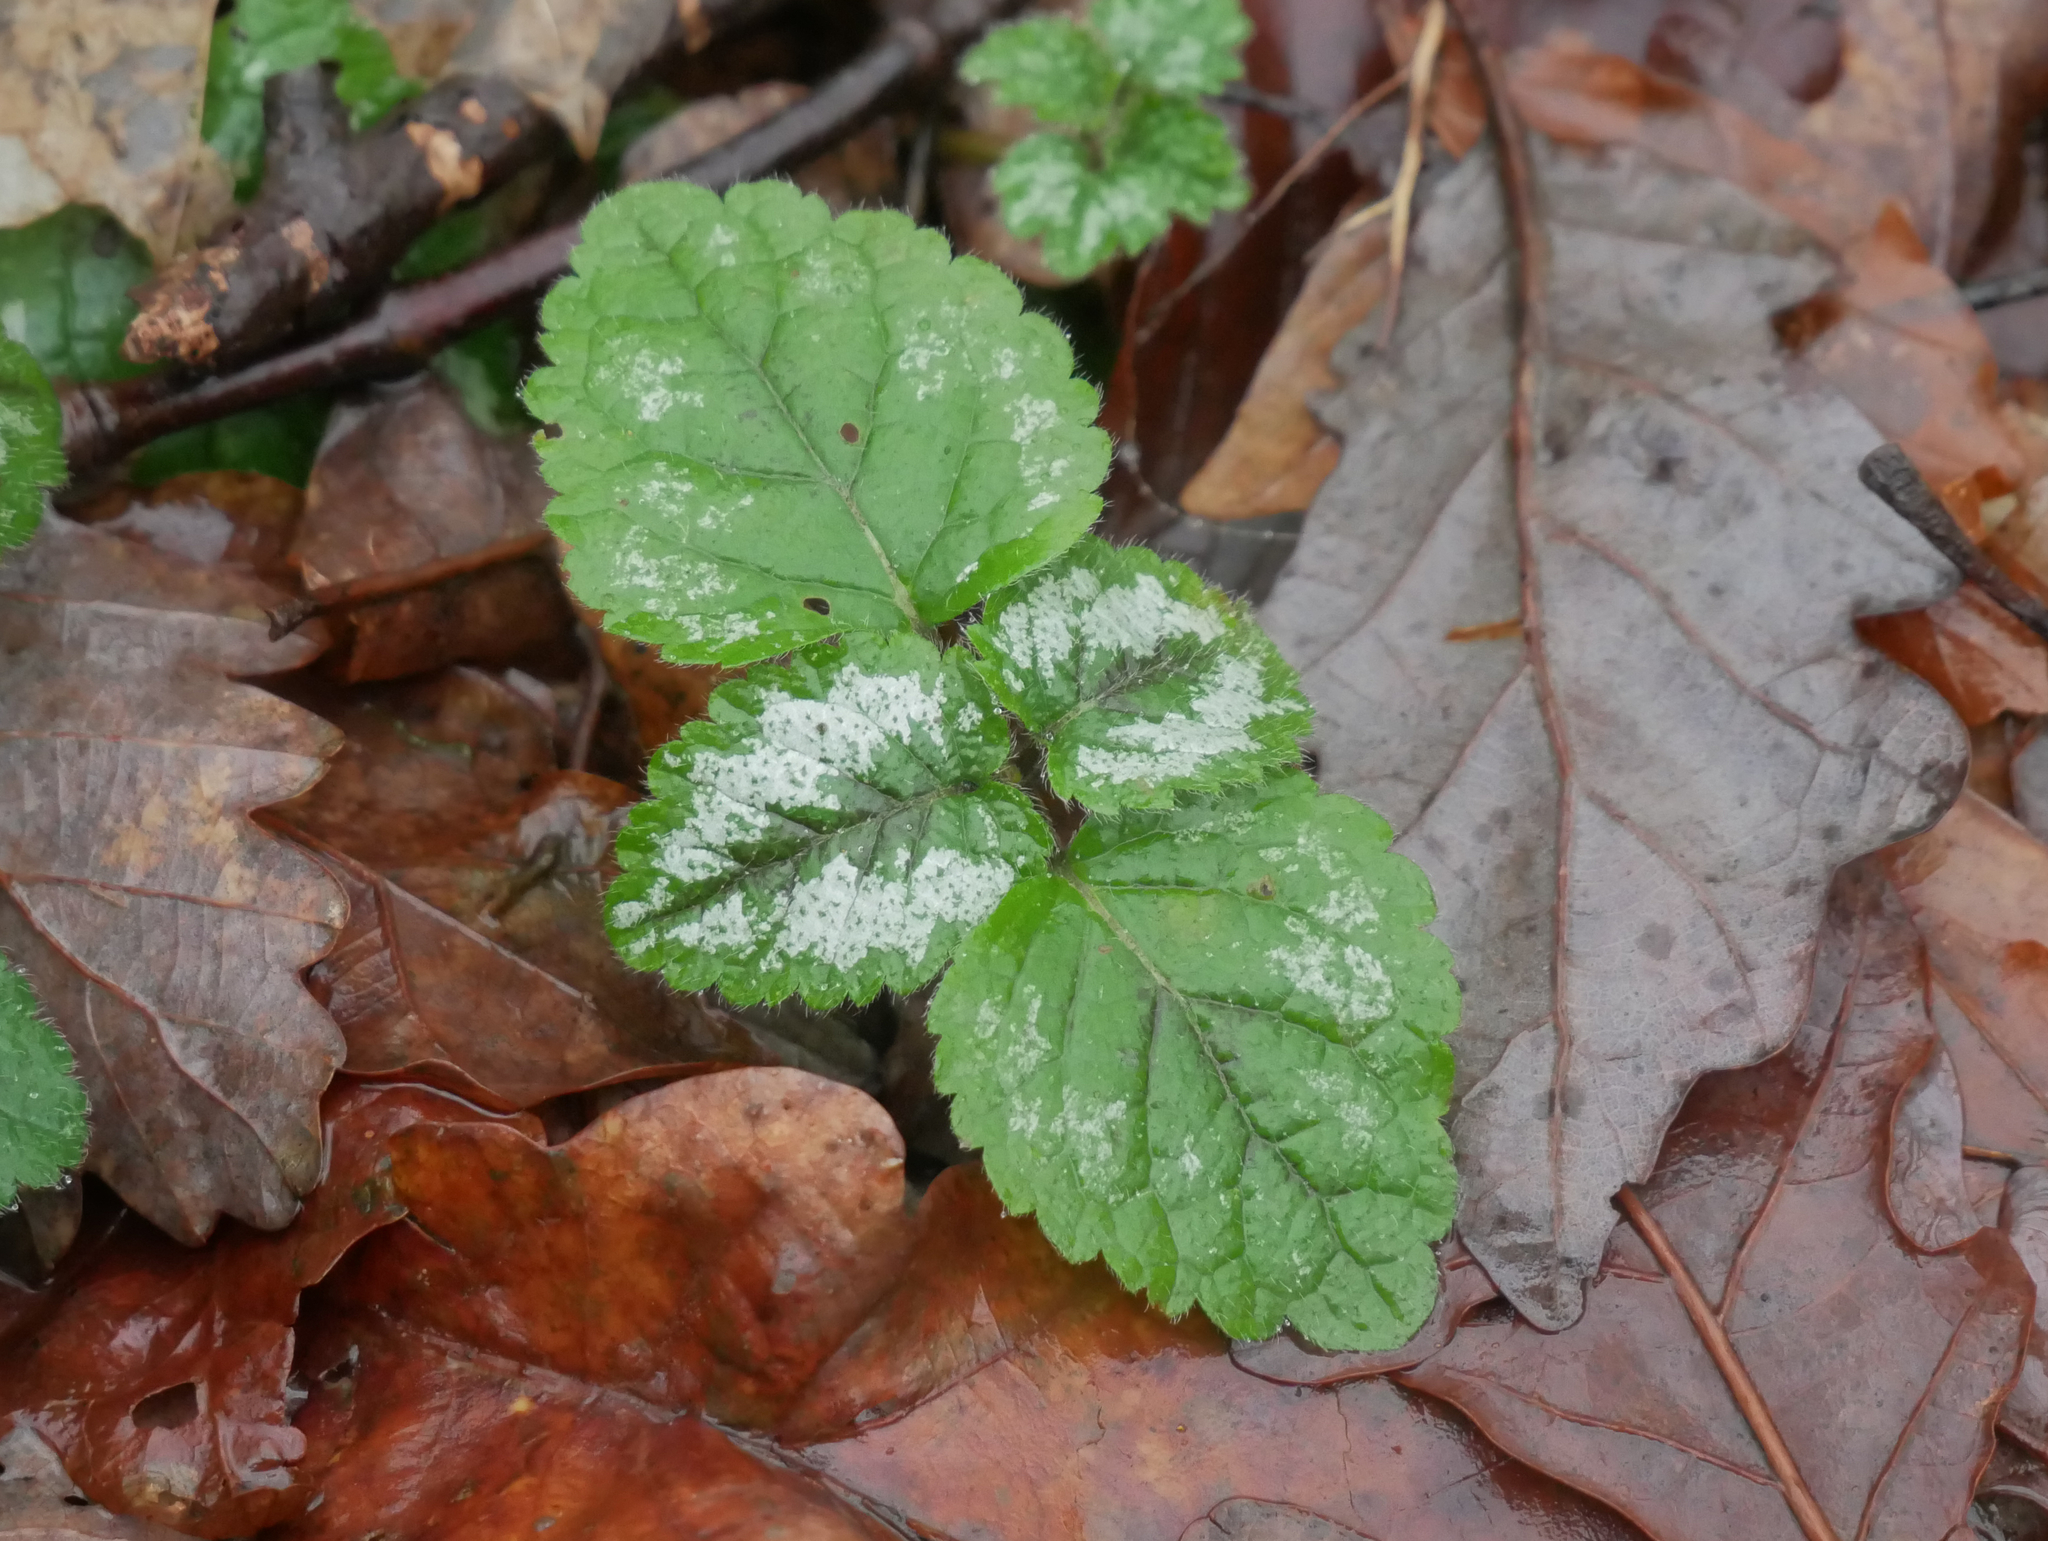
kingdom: Plantae
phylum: Tracheophyta
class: Magnoliopsida
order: Lamiales
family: Lamiaceae
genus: Lamium
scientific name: Lamium galeobdolon
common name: Yellow archangel
